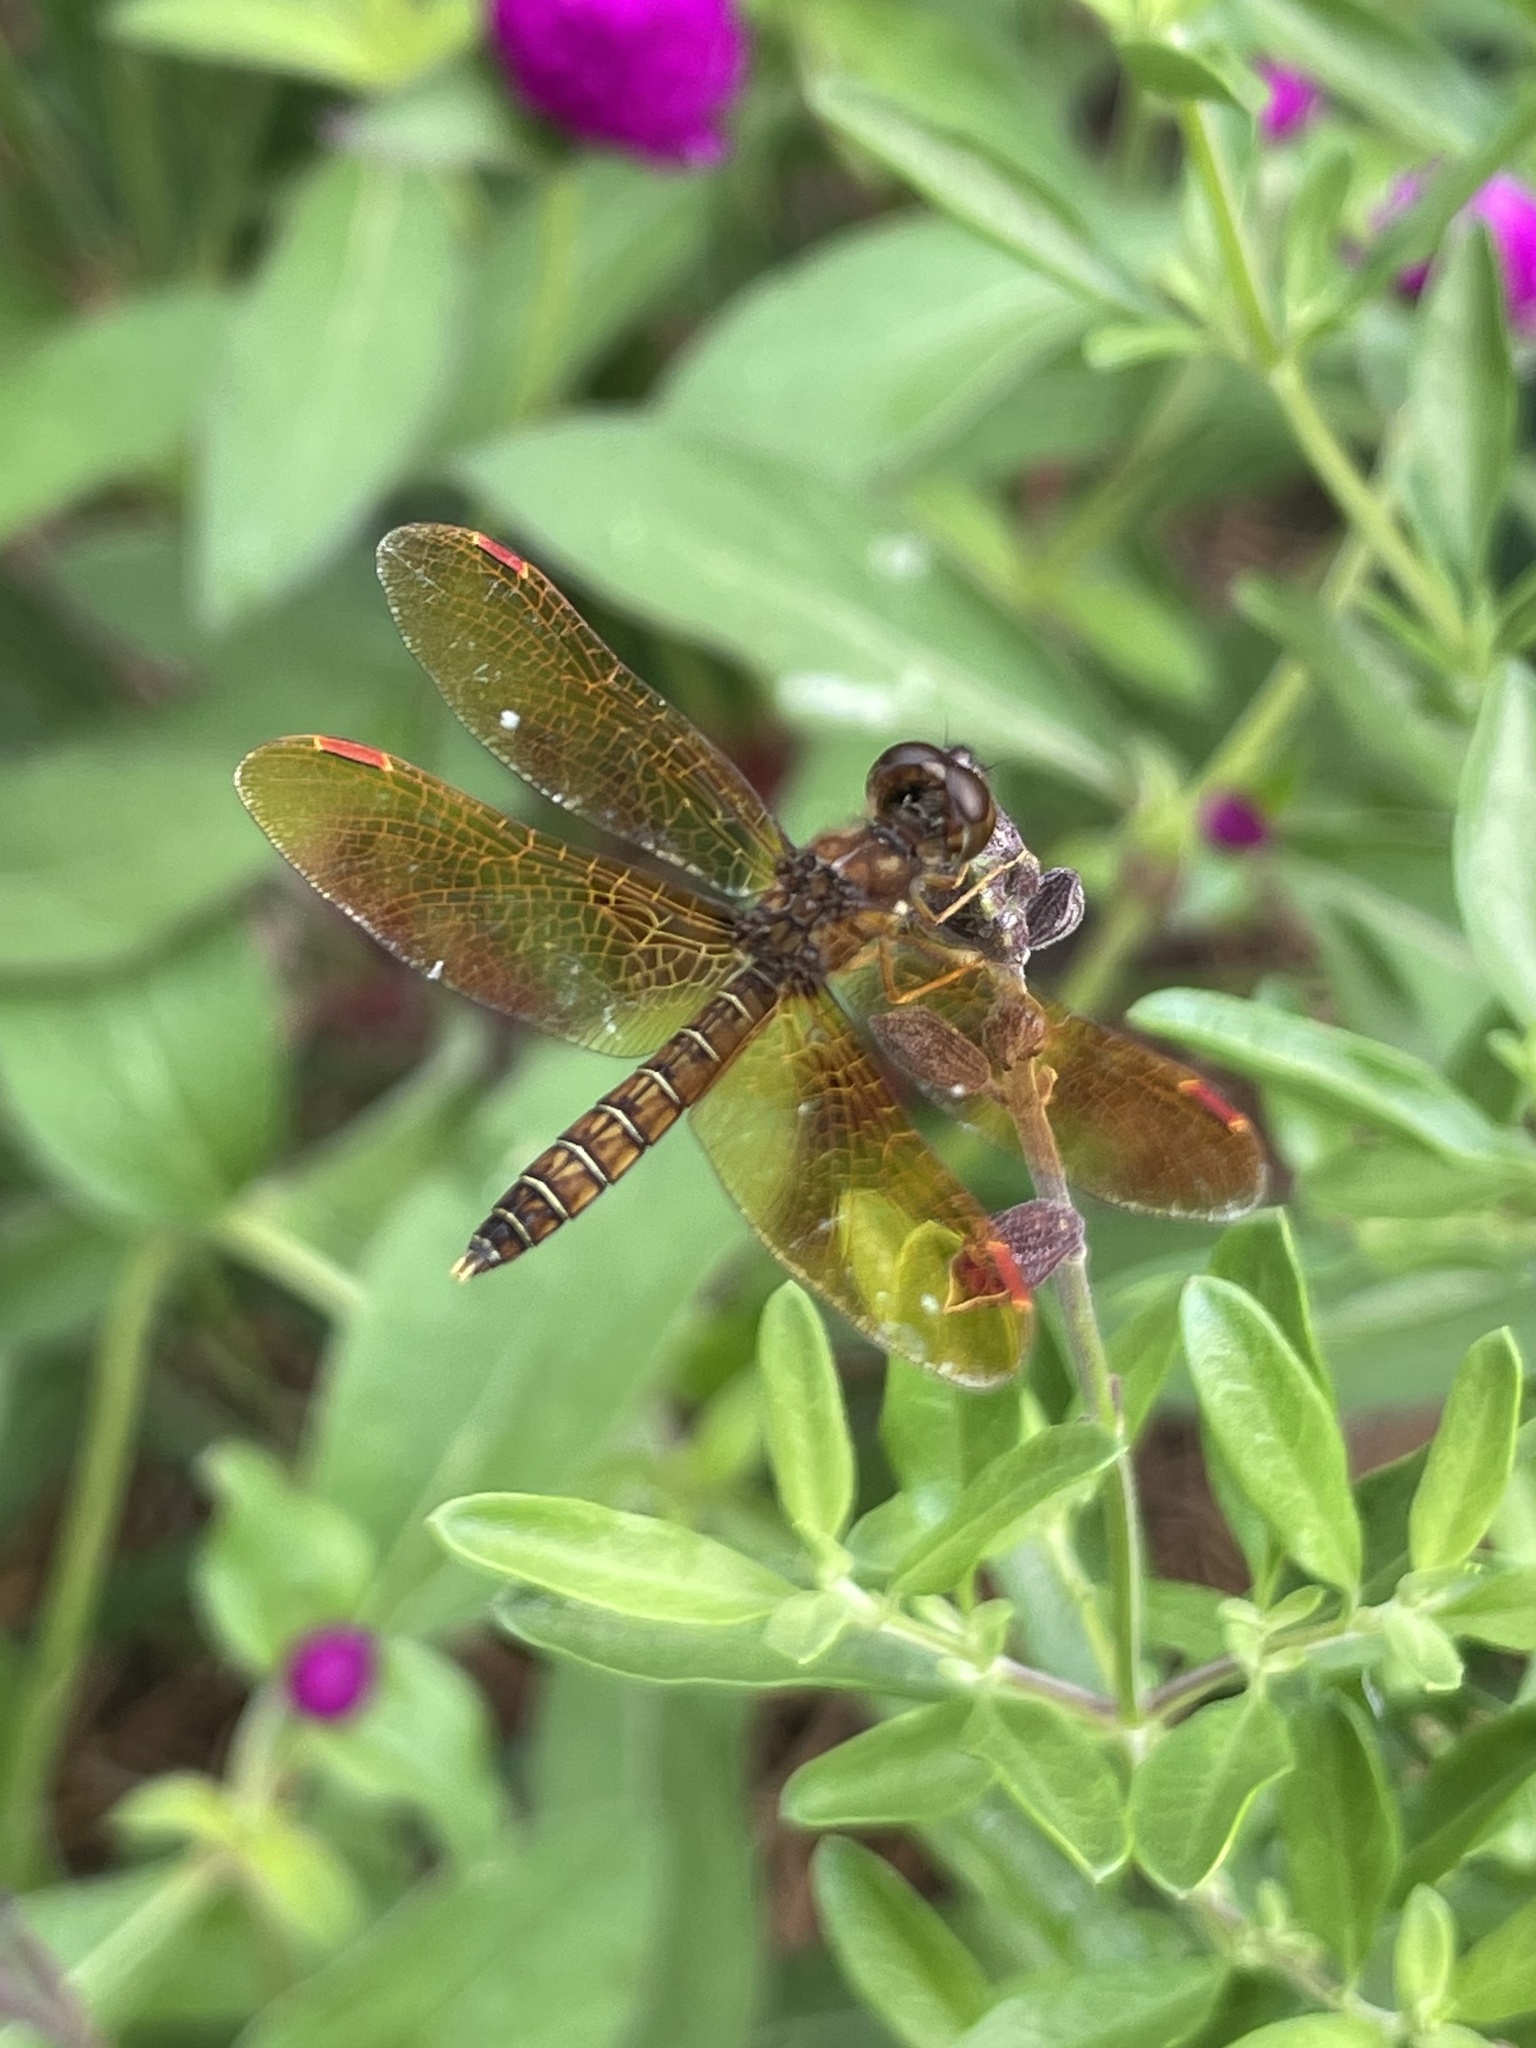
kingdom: Animalia
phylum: Arthropoda
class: Insecta
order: Odonata
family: Libellulidae
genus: Perithemis
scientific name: Perithemis tenera
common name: Eastern amberwing
